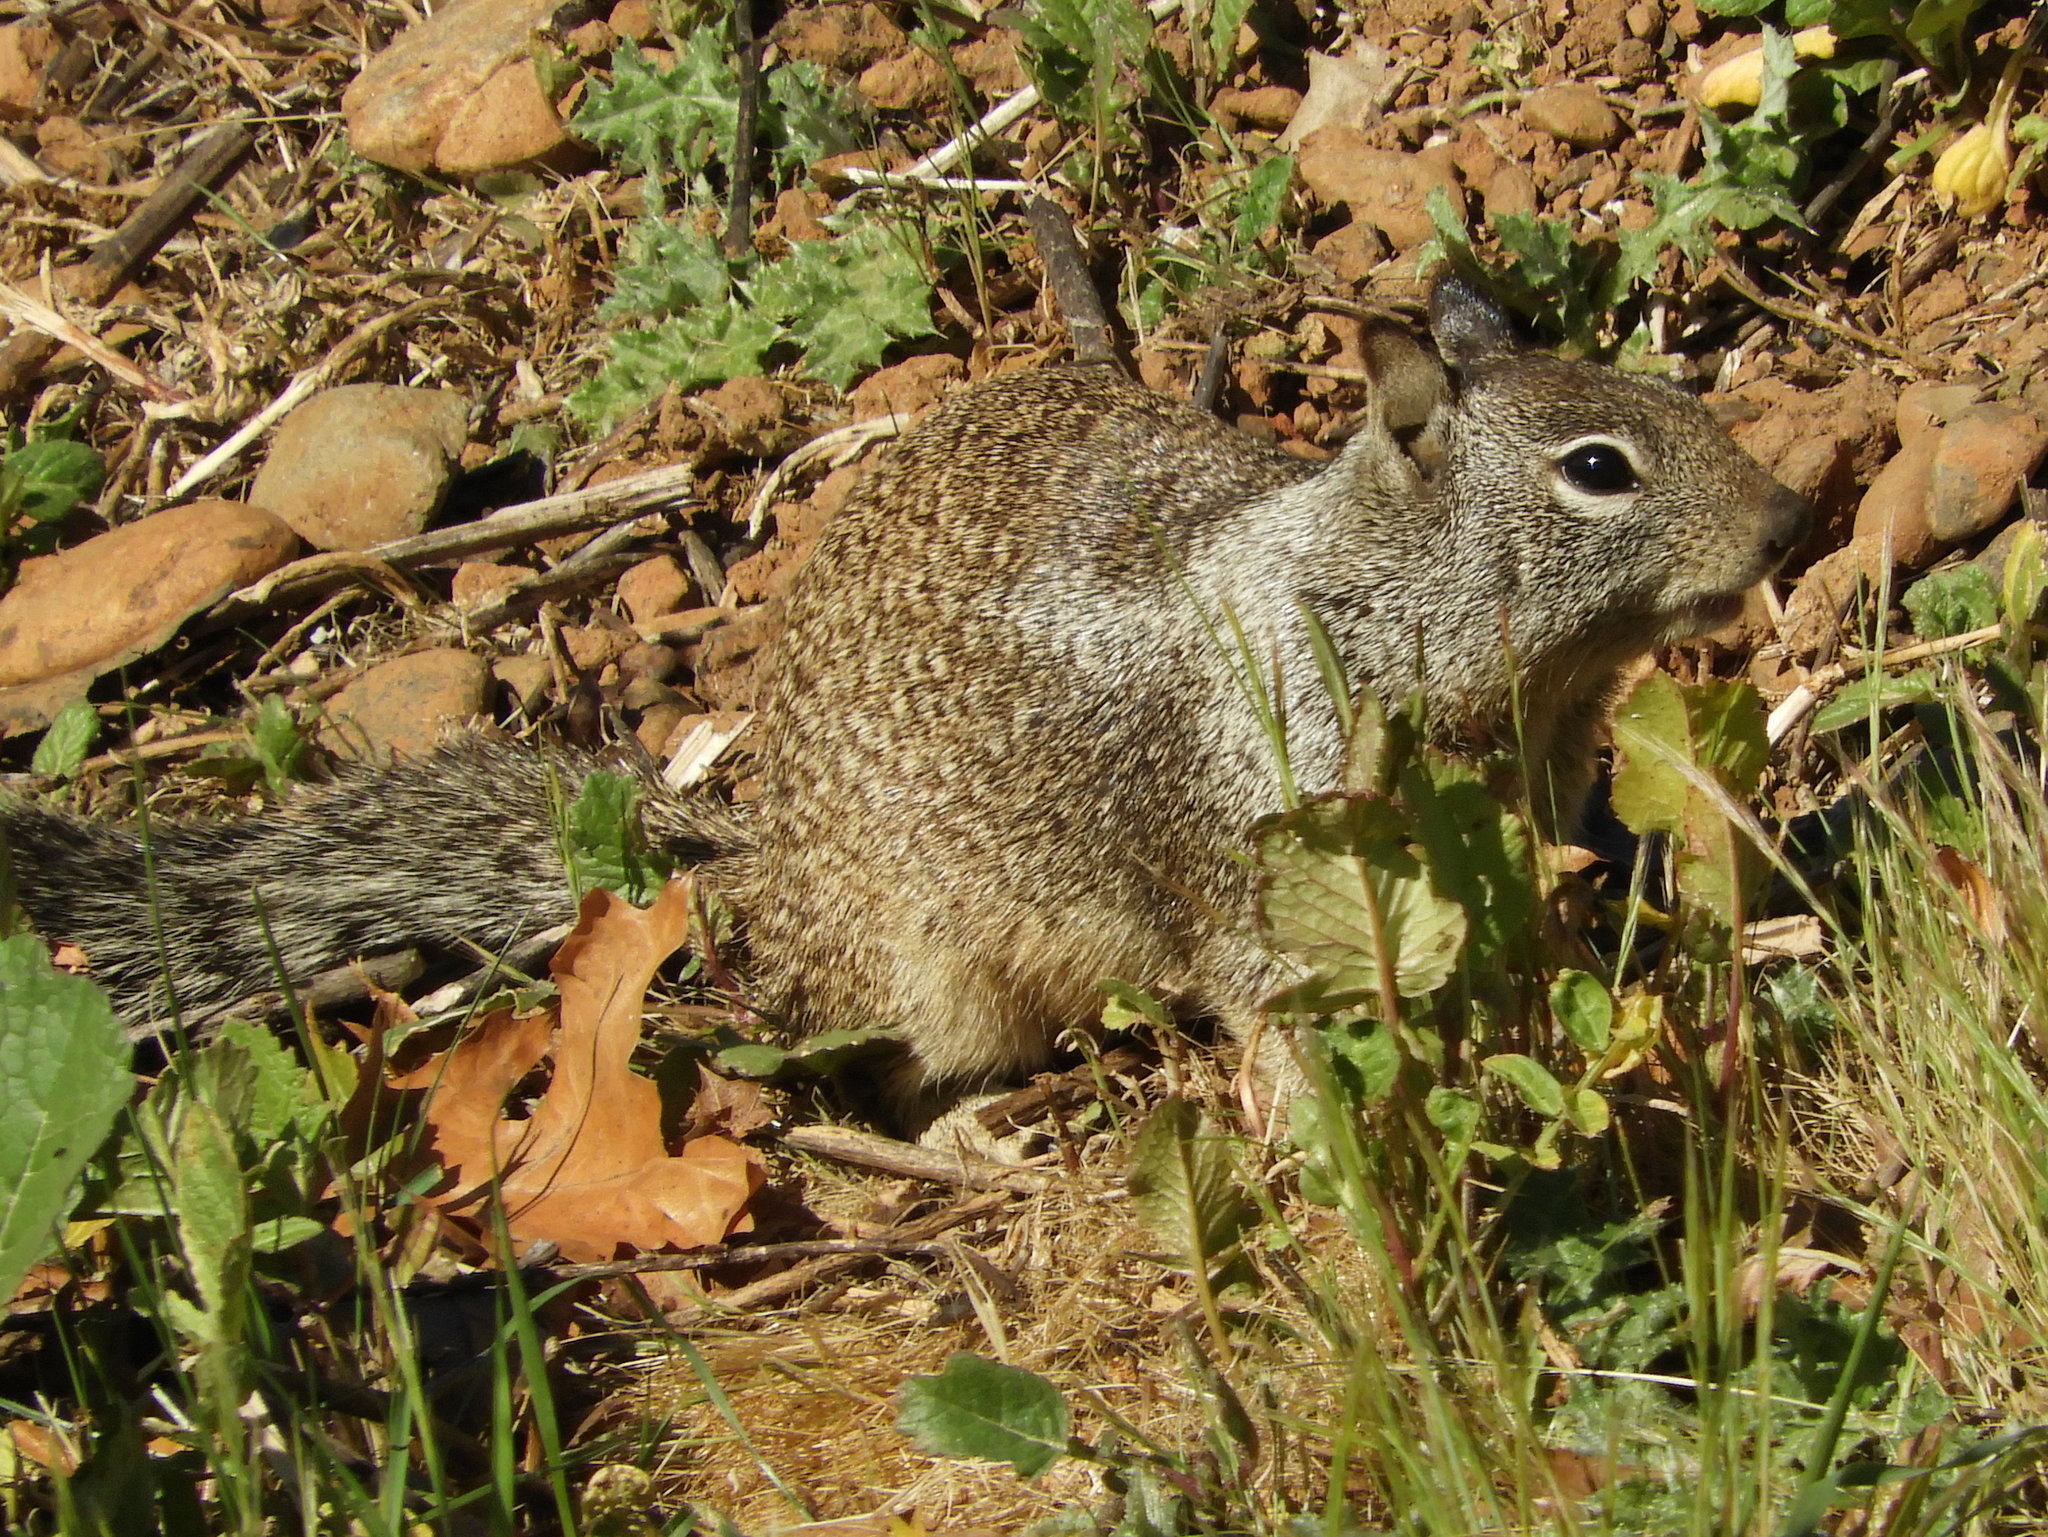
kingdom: Animalia
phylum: Chordata
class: Mammalia
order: Rodentia
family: Sciuridae
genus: Otospermophilus
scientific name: Otospermophilus beecheyi
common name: California ground squirrel
